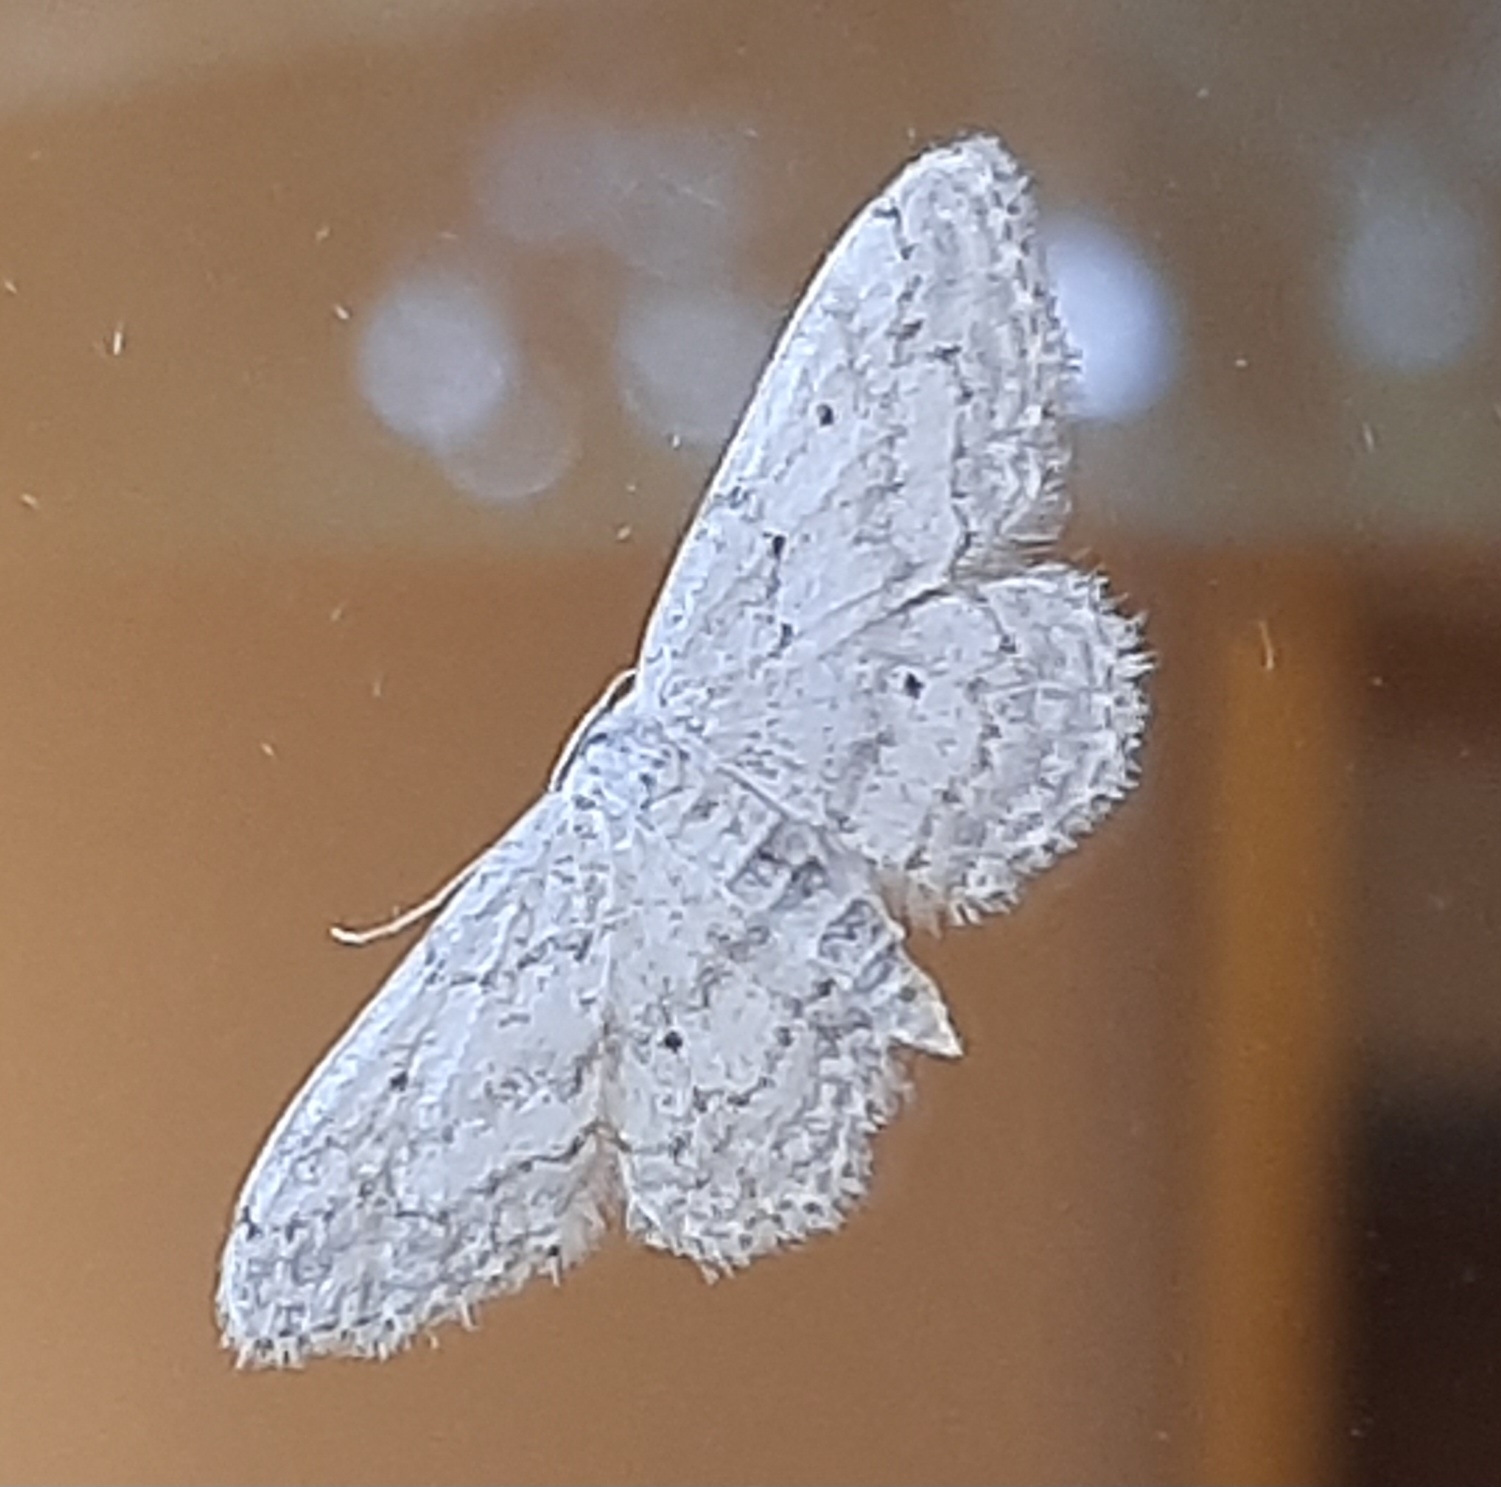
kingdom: Animalia
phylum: Arthropoda
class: Insecta
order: Lepidoptera
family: Geometridae
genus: Idaea
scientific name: Idaea seriata
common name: Small dusty wave
